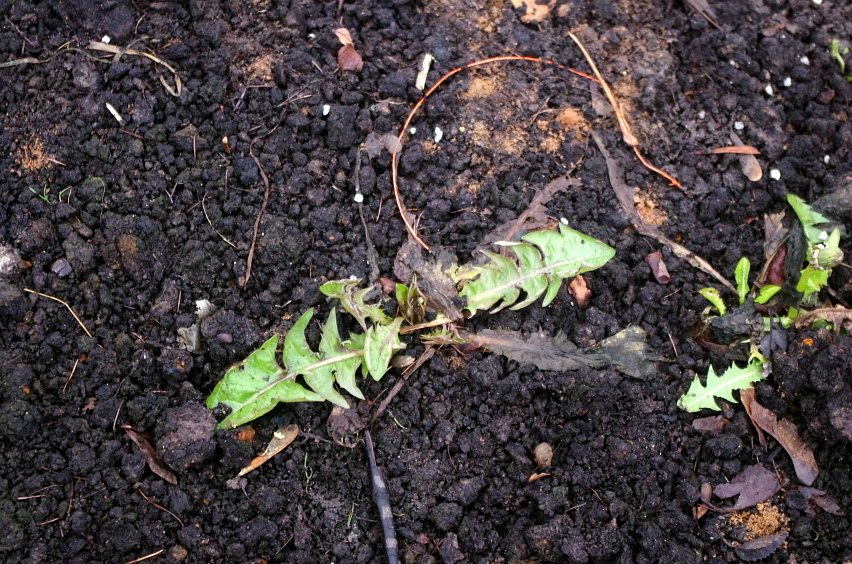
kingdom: Plantae
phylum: Tracheophyta
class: Magnoliopsida
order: Asterales
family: Asteraceae
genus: Taraxacum
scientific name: Taraxacum officinale
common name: Common dandelion
